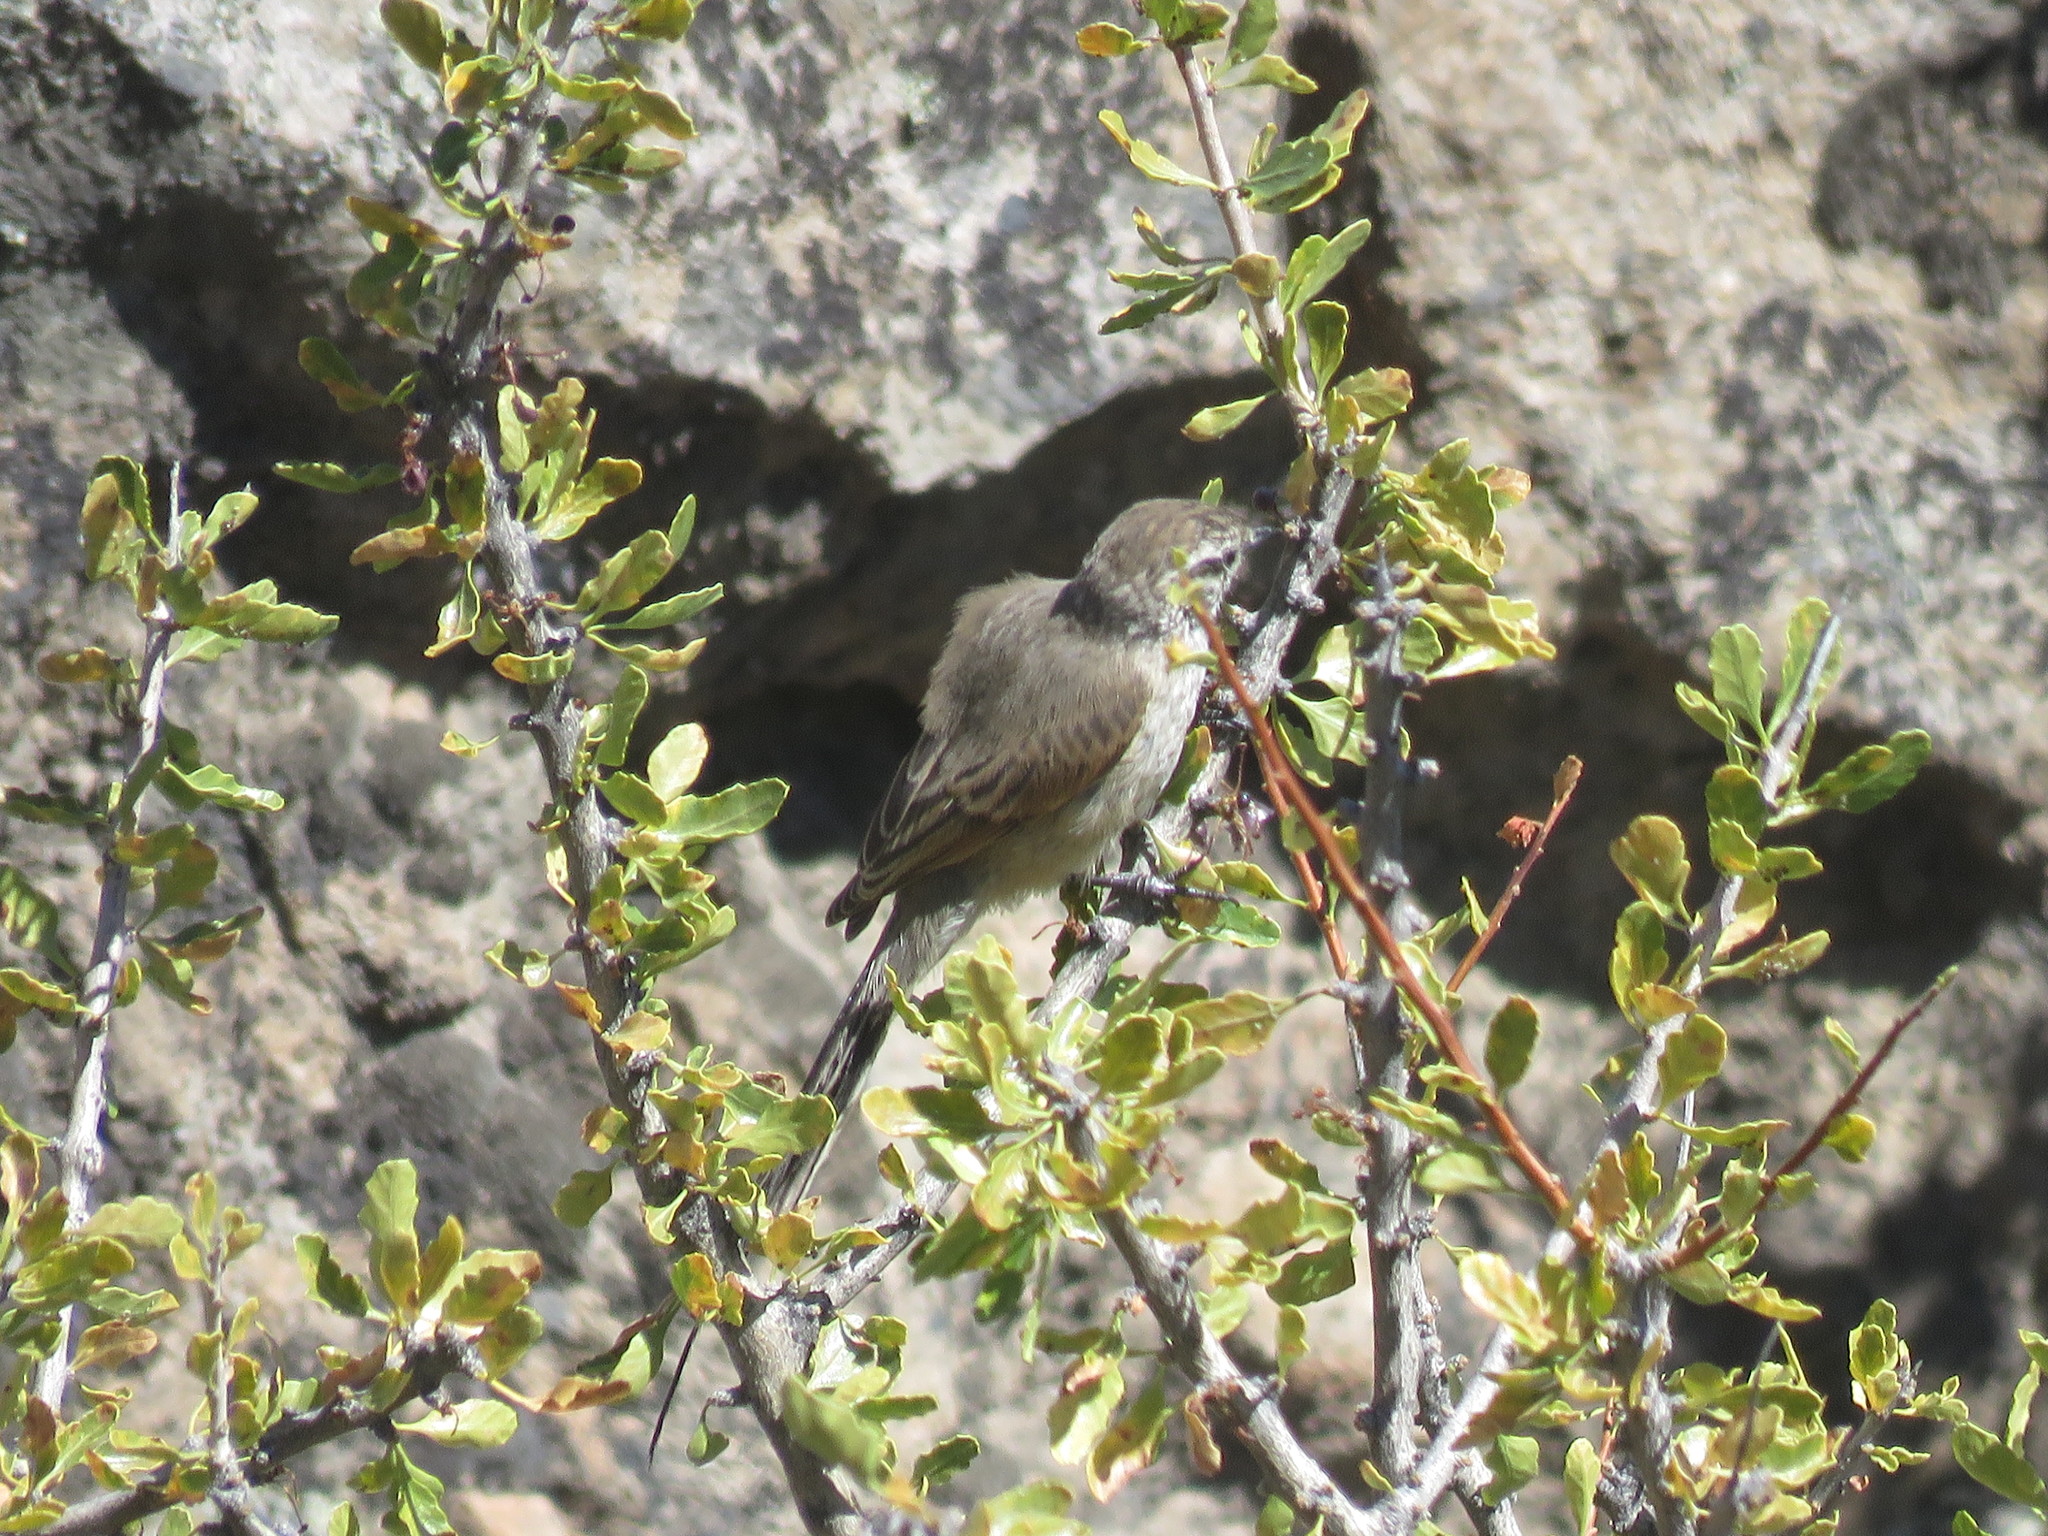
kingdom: Animalia
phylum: Chordata
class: Aves
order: Passeriformes
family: Furnariidae
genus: Leptasthenura
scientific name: Leptasthenura aegithaloides
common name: Plain-mantled tit-spinetail
